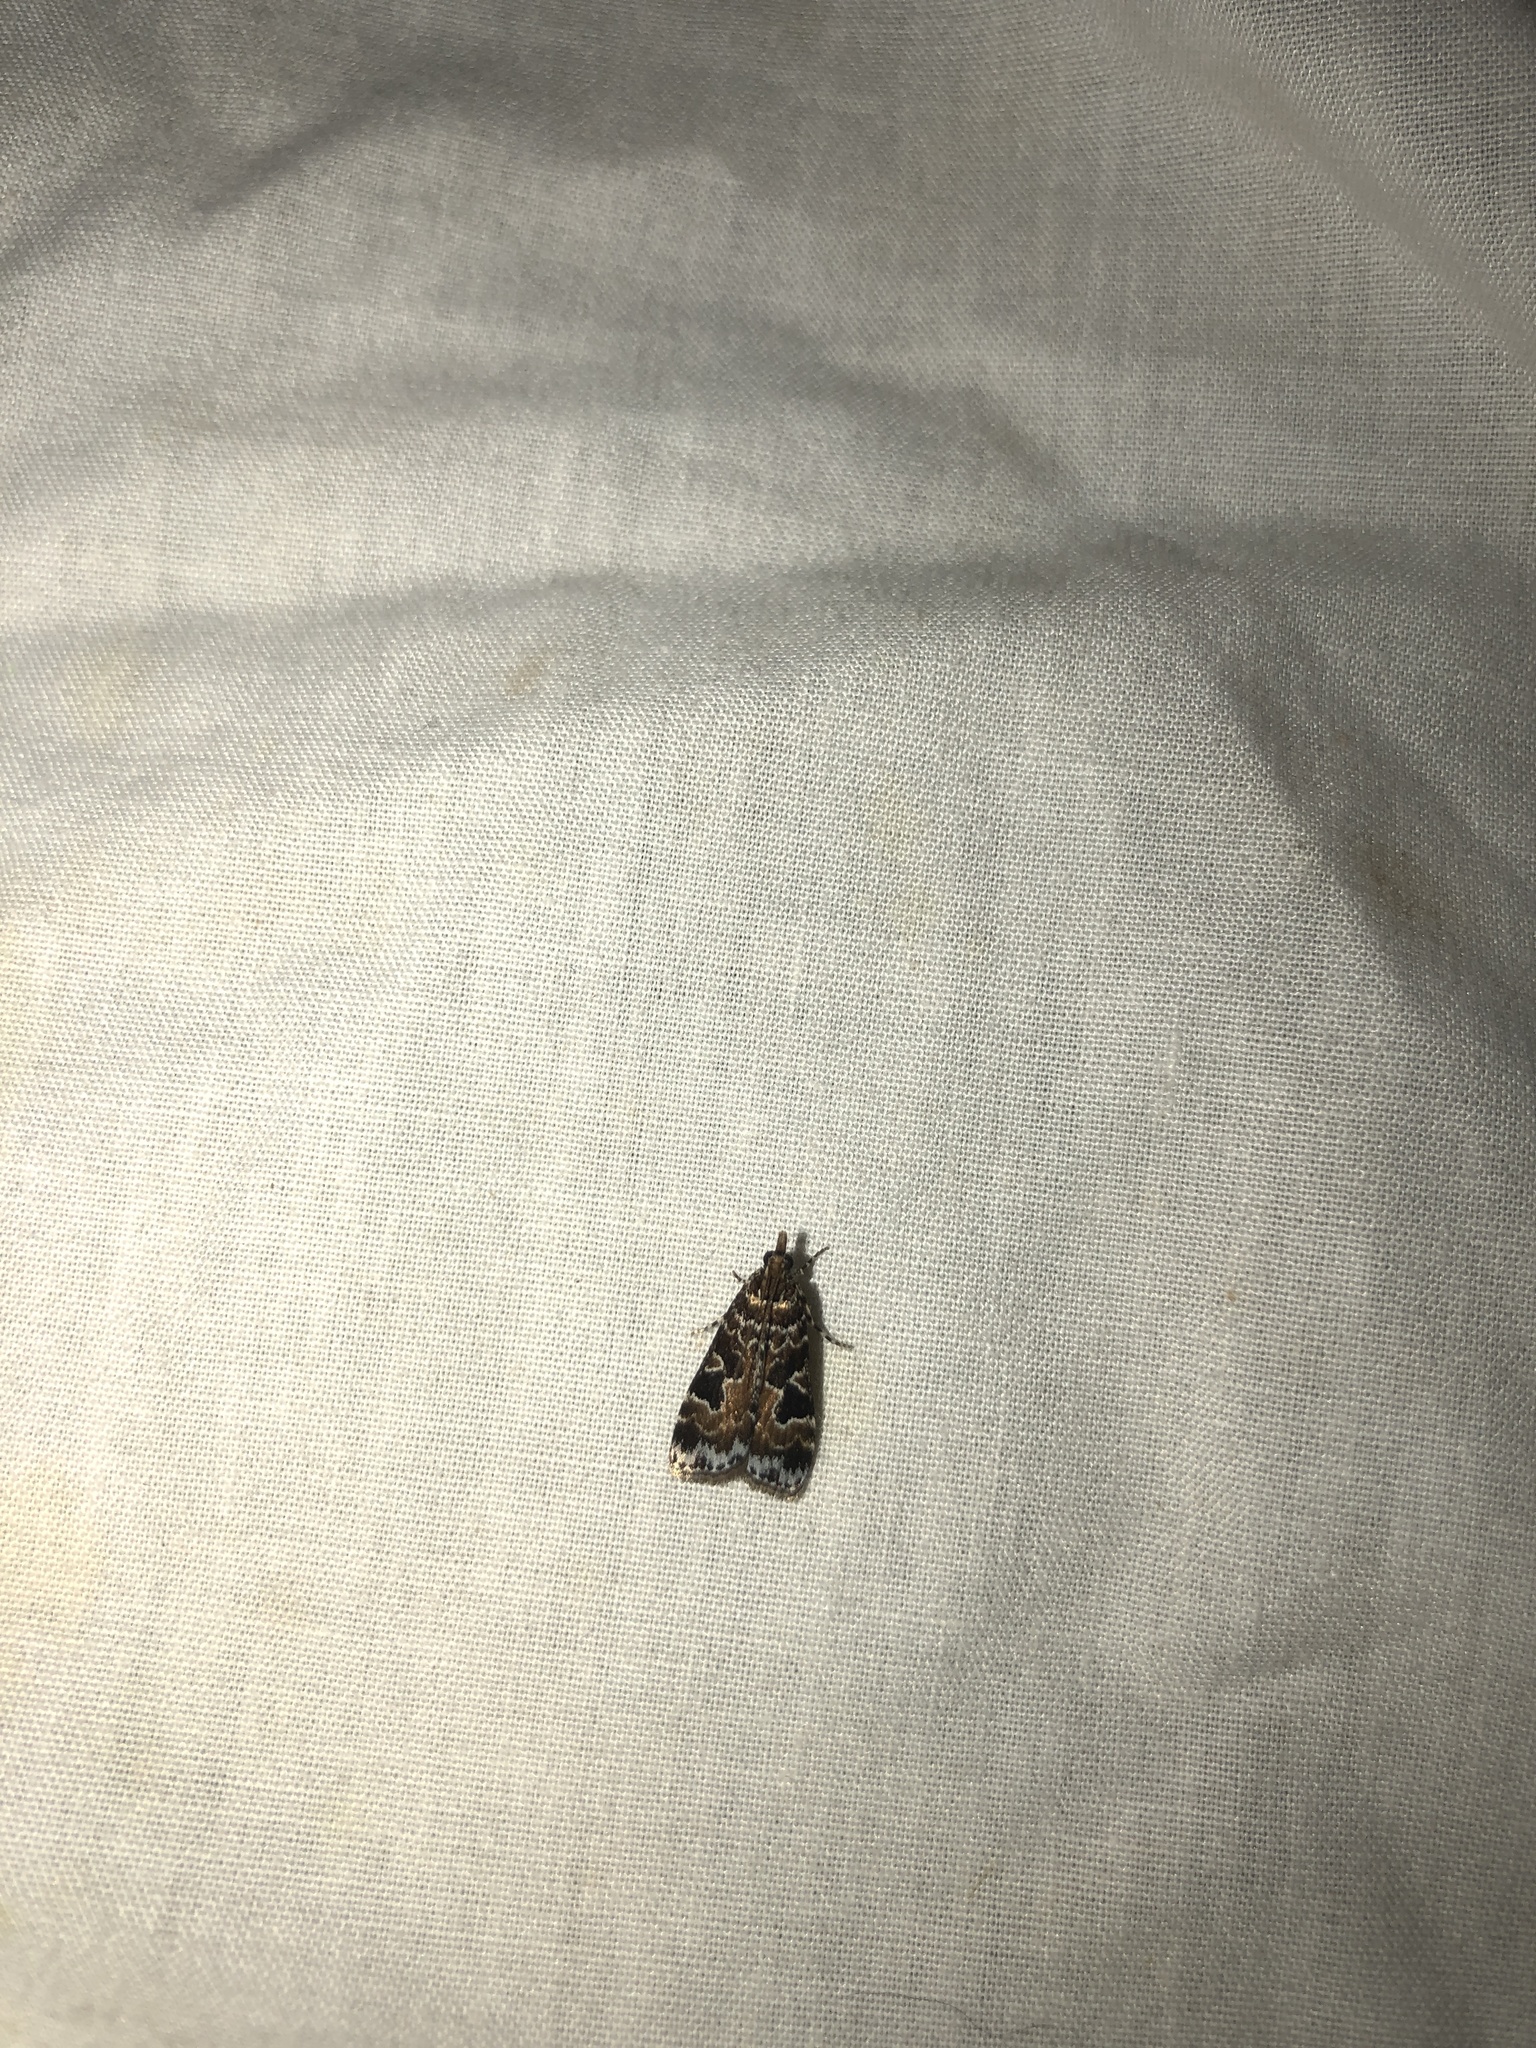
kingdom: Animalia
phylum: Arthropoda
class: Insecta
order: Lepidoptera
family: Crambidae
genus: Scoparia
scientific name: Scoparia ustimacula
